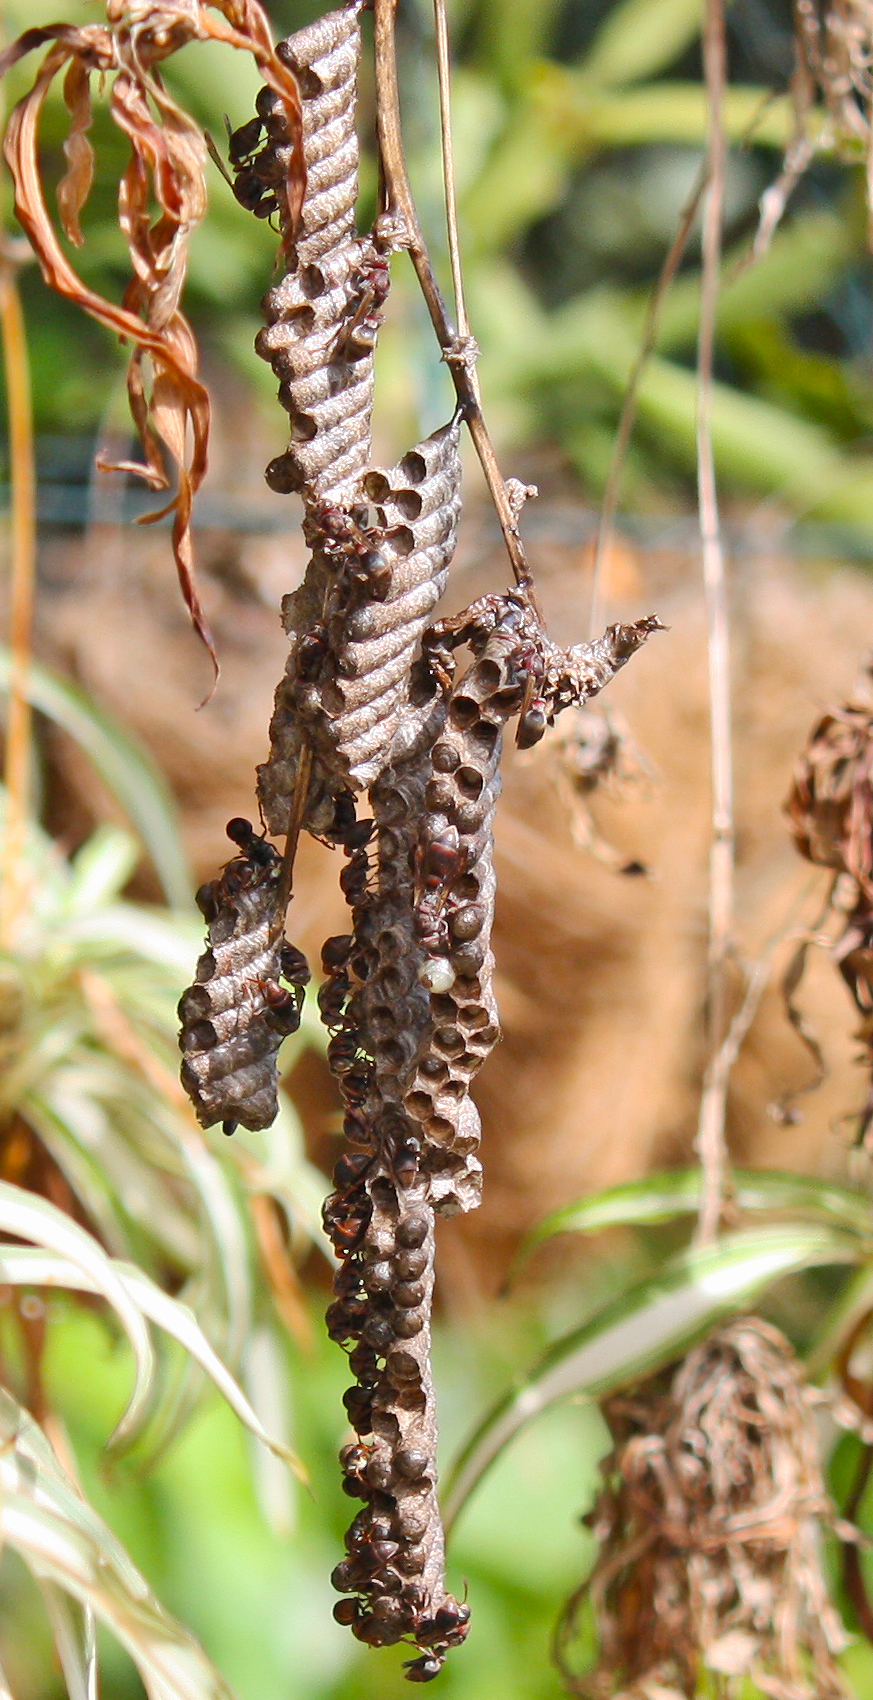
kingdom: Animalia
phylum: Arthropoda
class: Insecta
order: Hymenoptera
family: Vespidae
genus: Ropalidia
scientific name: Ropalidia revolutionalis
